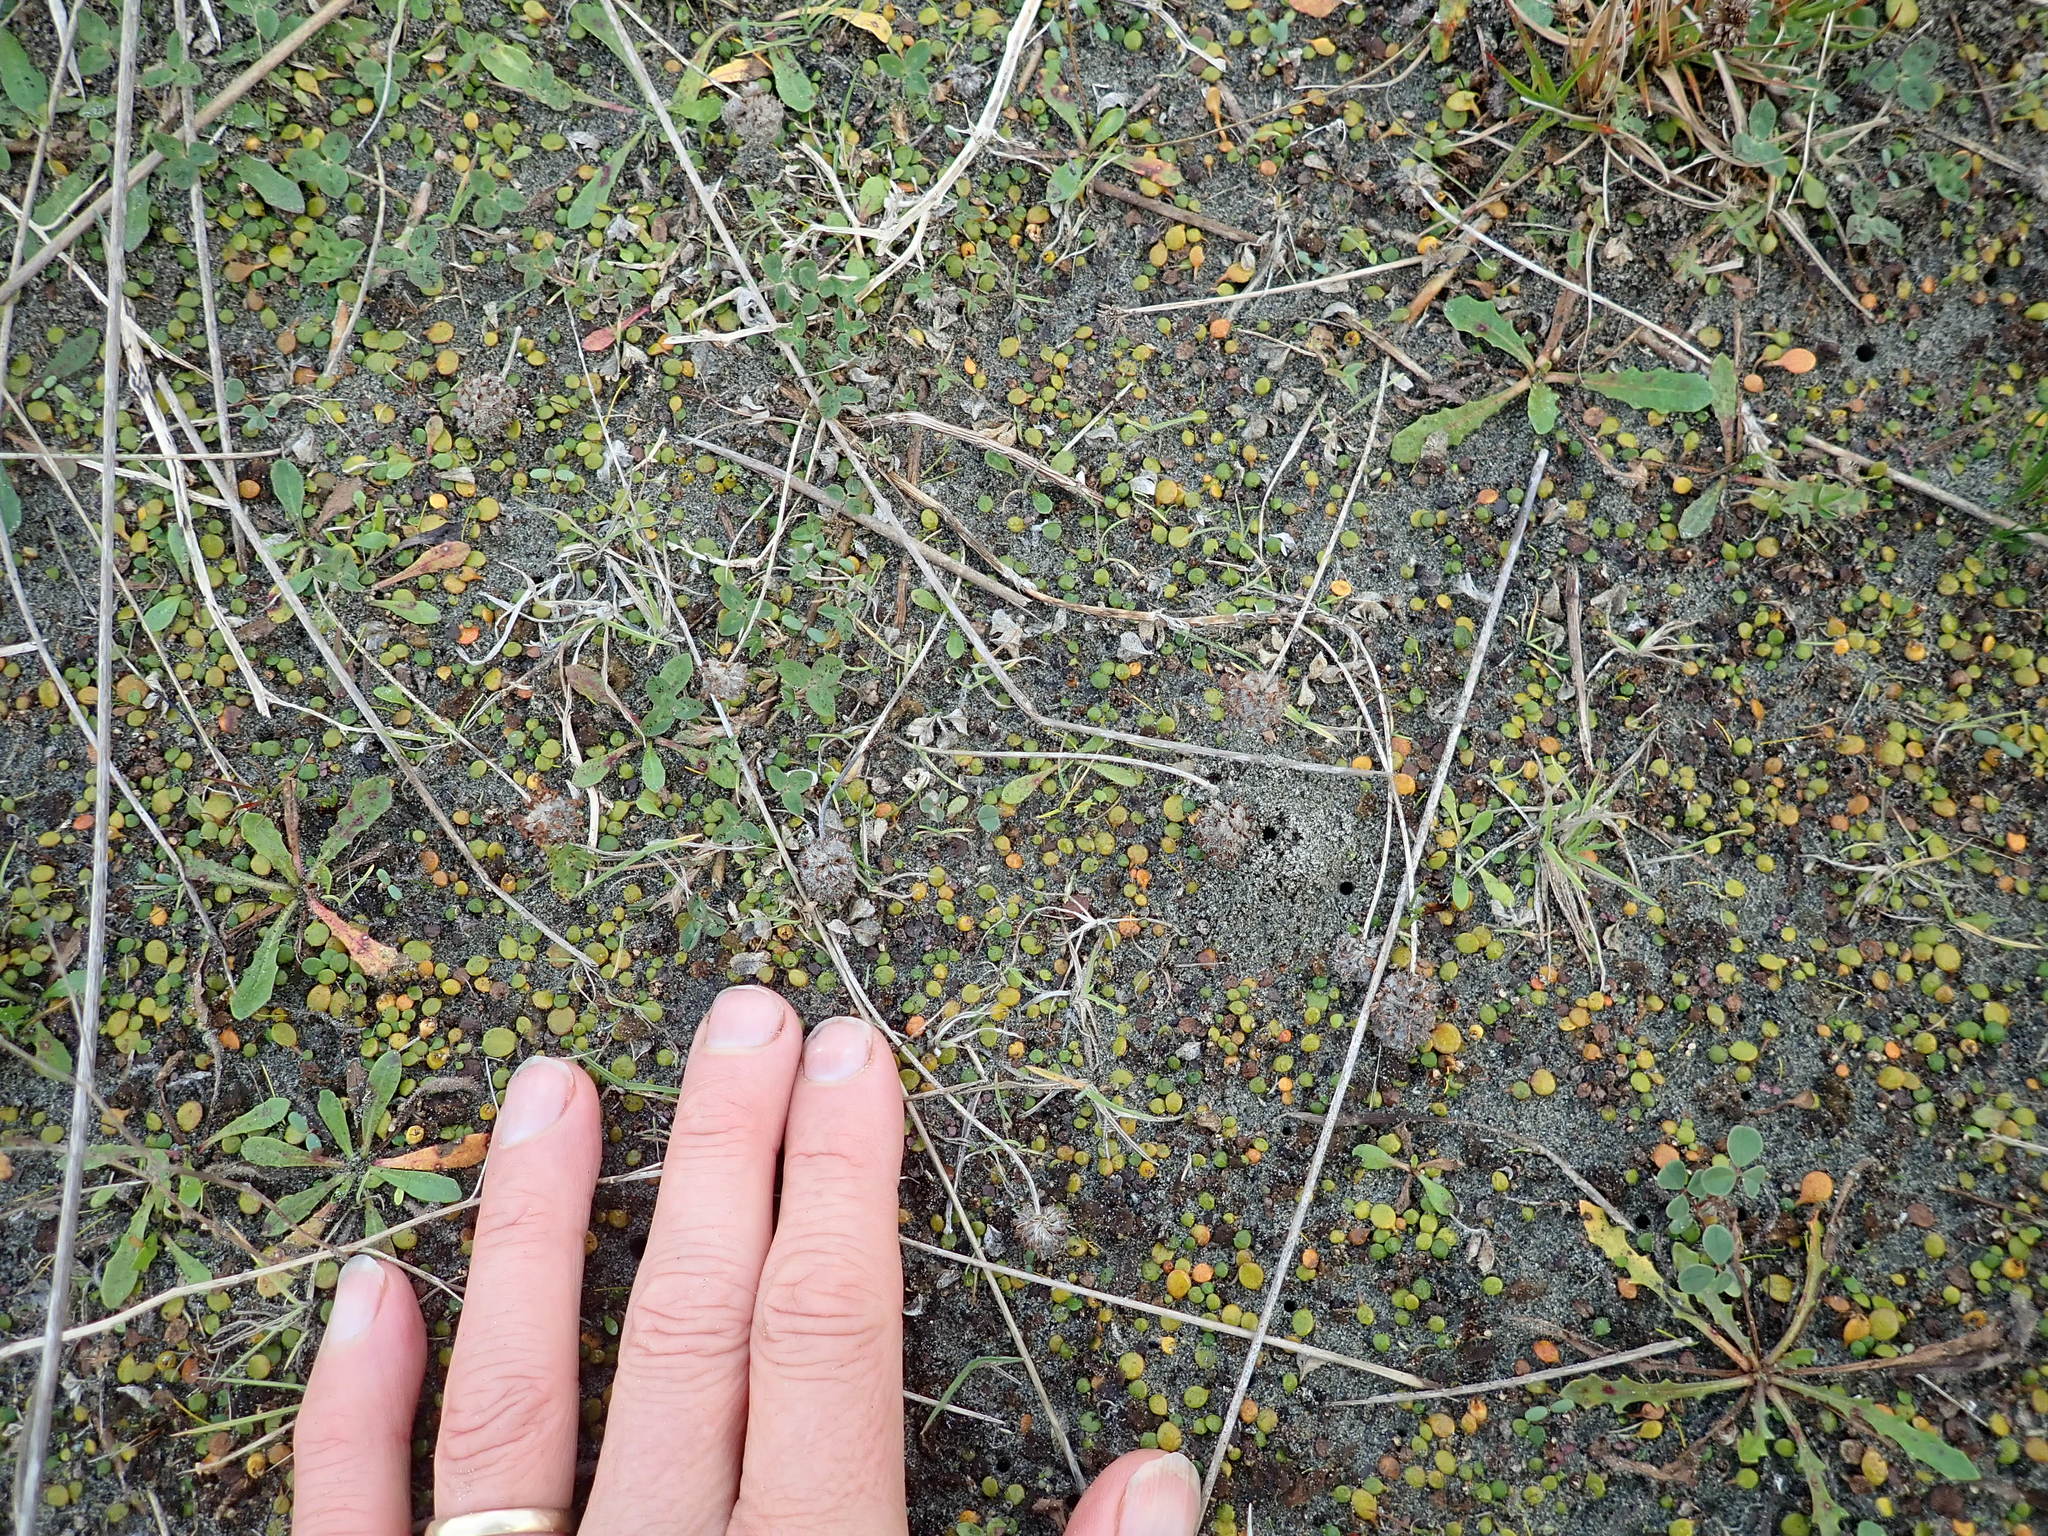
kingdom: Plantae
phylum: Tracheophyta
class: Magnoliopsida
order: Fabales
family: Fabaceae
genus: Trifolium
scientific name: Trifolium fragiferum
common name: Strawberry clover
